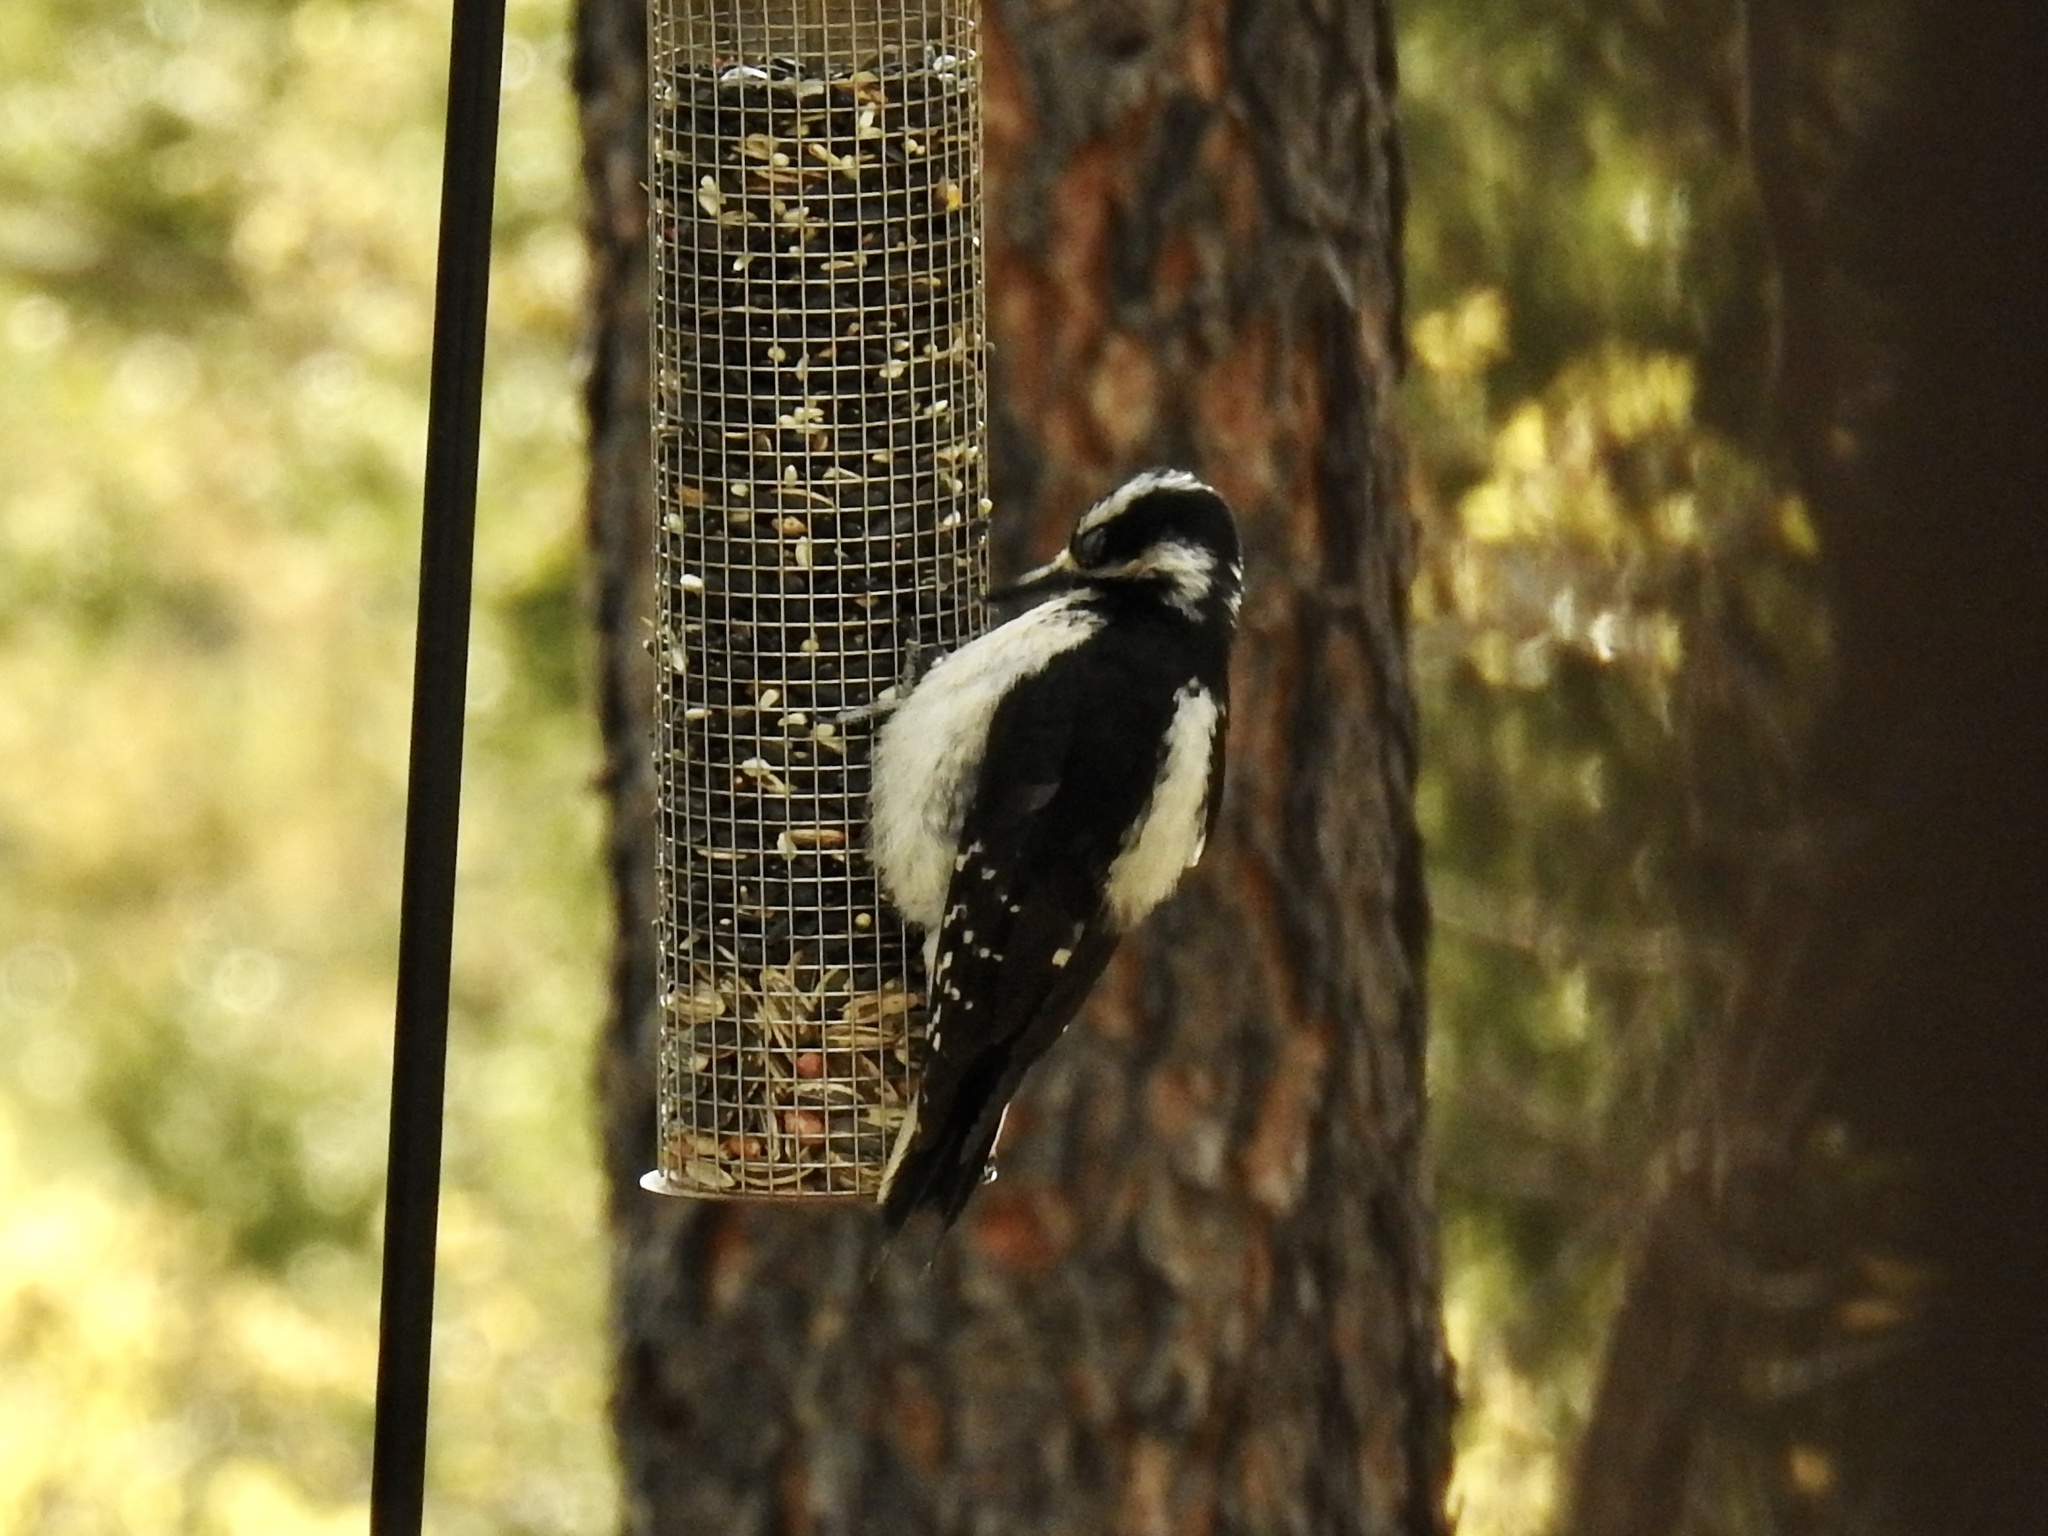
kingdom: Animalia
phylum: Chordata
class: Aves
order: Piciformes
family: Picidae
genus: Leuconotopicus
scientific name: Leuconotopicus villosus
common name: Hairy woodpecker
